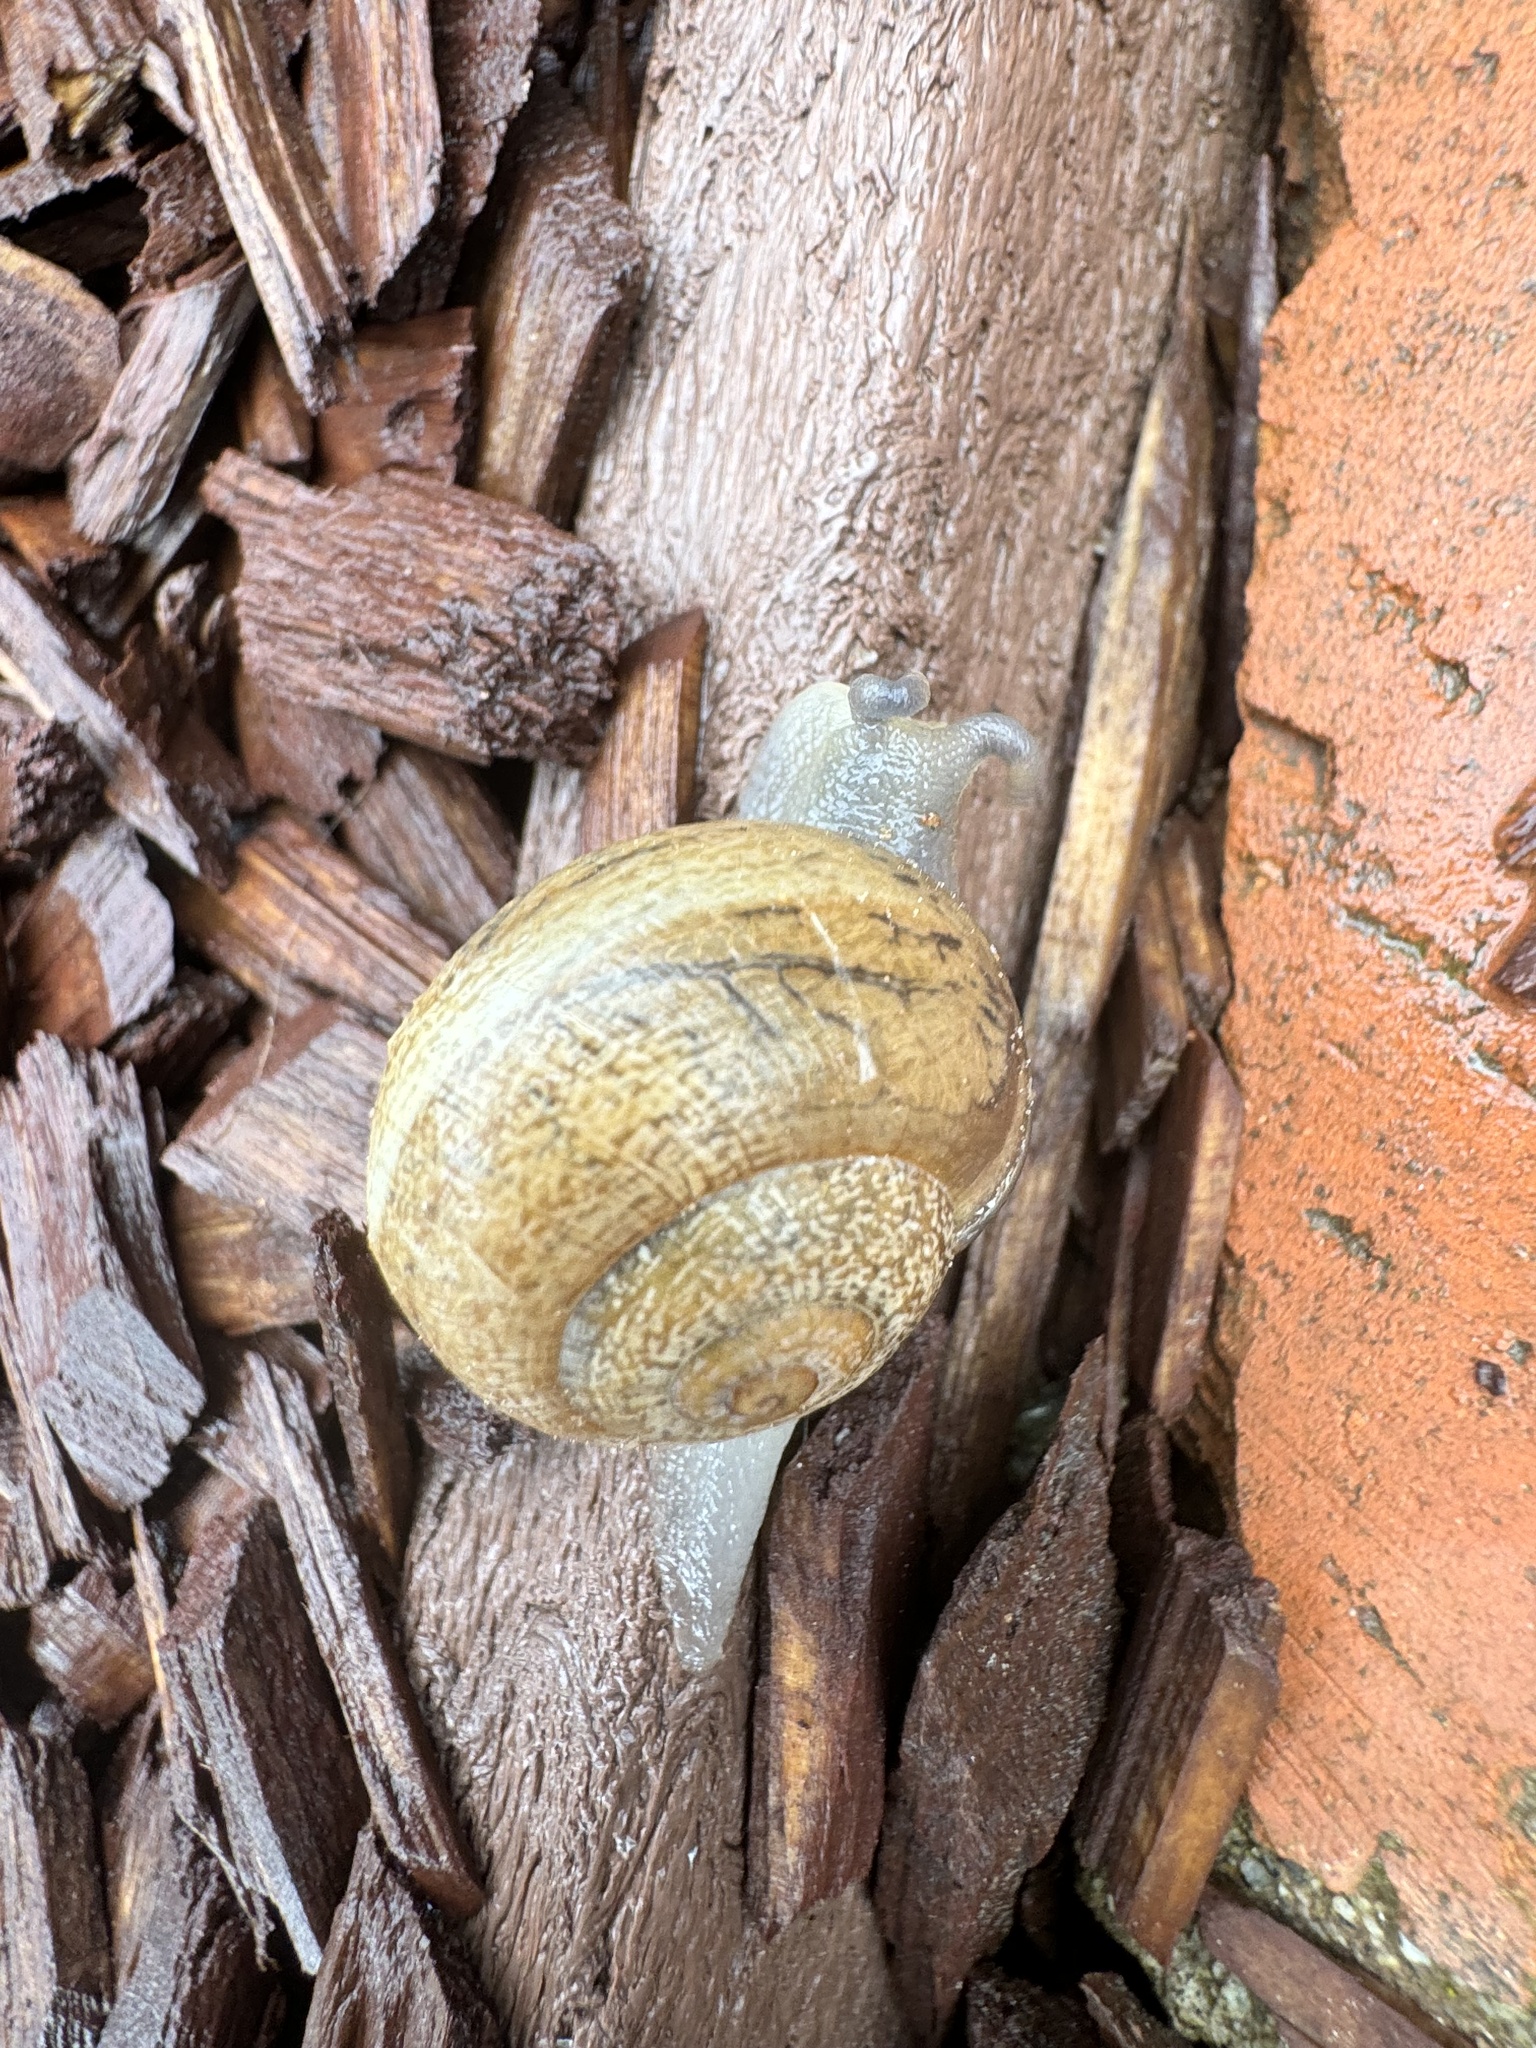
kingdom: Animalia
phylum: Mollusca
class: Gastropoda
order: Stylommatophora
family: Helicidae
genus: Otala
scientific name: Otala lactea
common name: Milk snail
